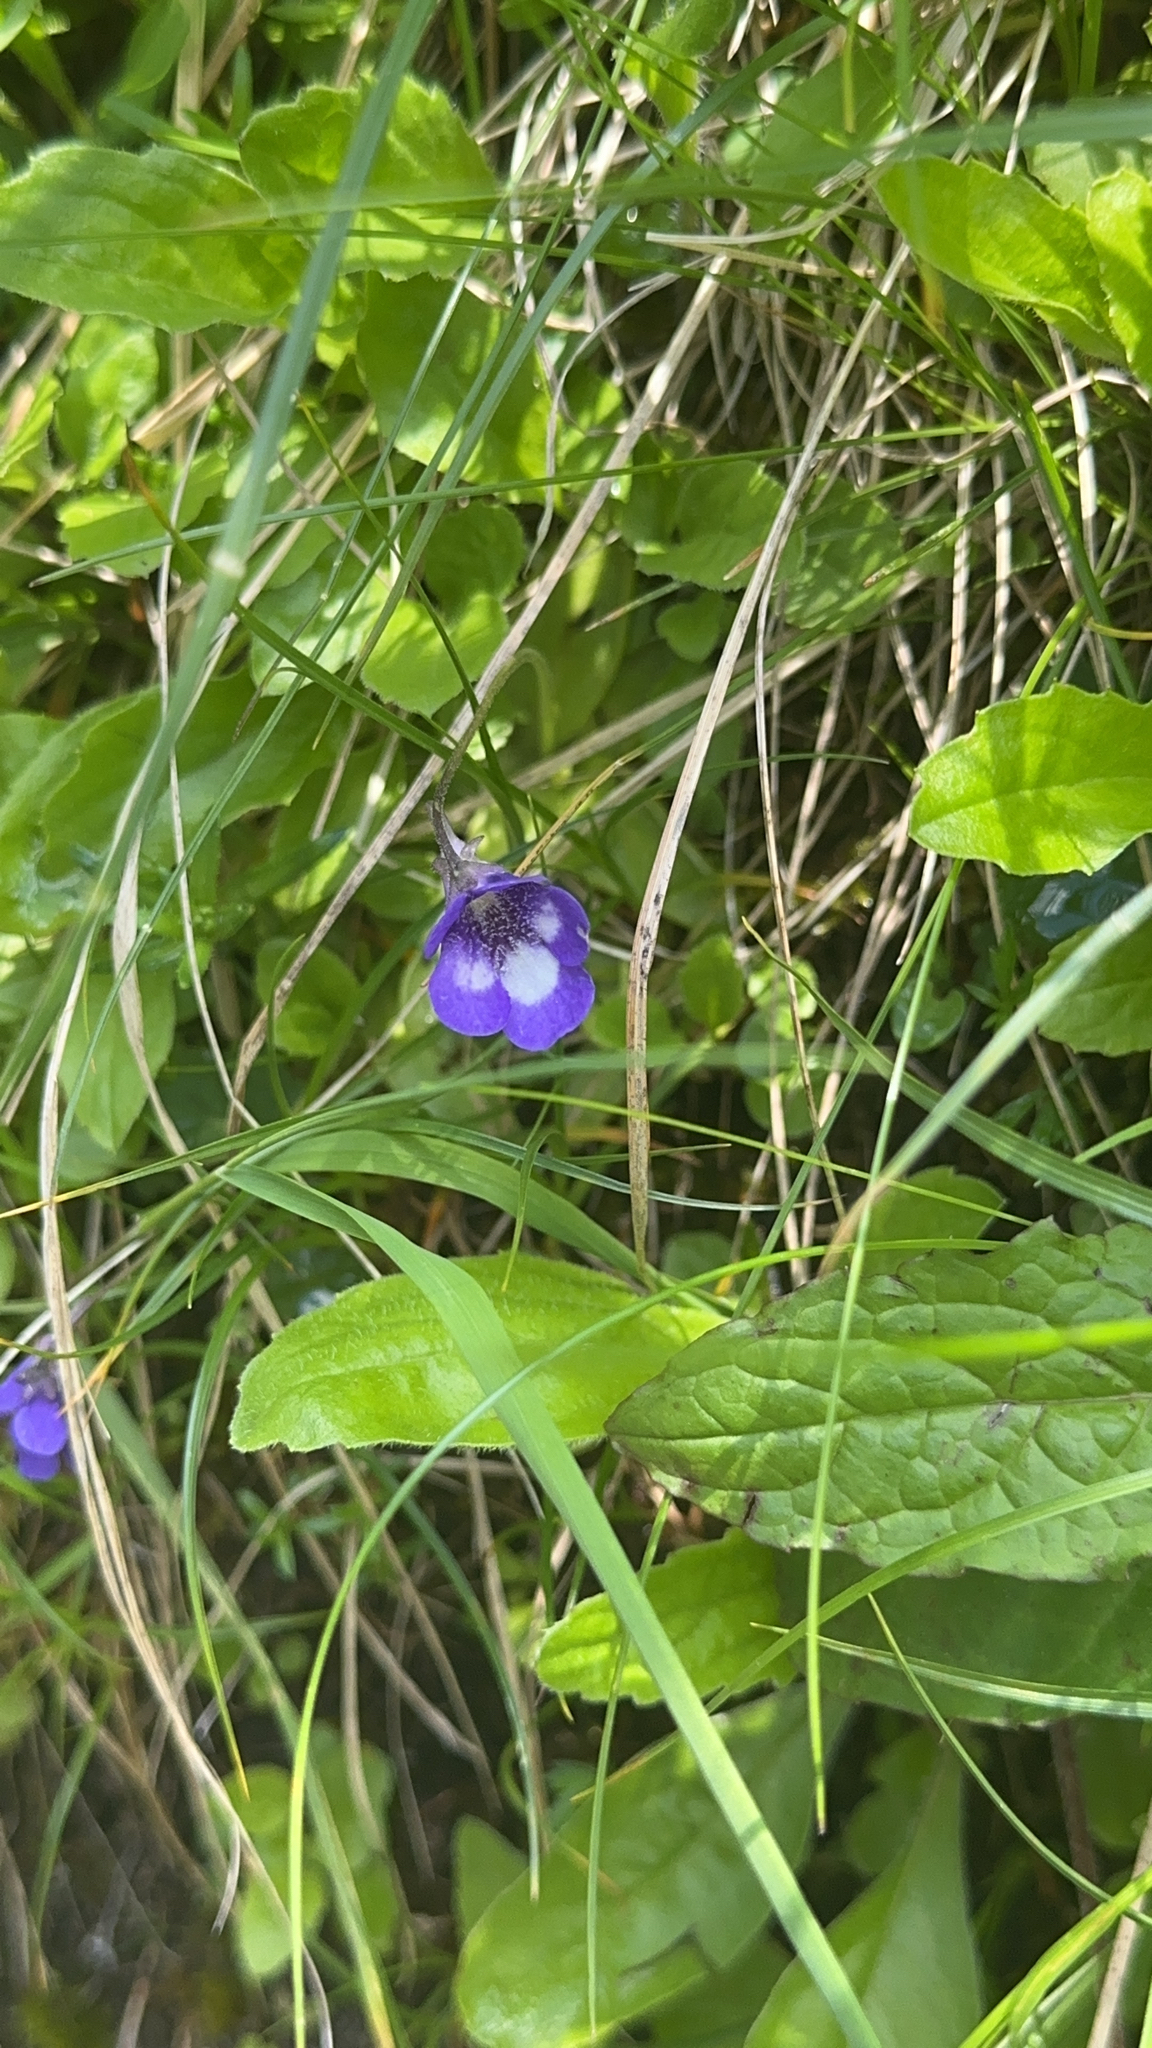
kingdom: Plantae
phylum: Tracheophyta
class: Magnoliopsida
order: Lamiales
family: Lentibulariaceae
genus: Pinguicula
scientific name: Pinguicula leptoceras
